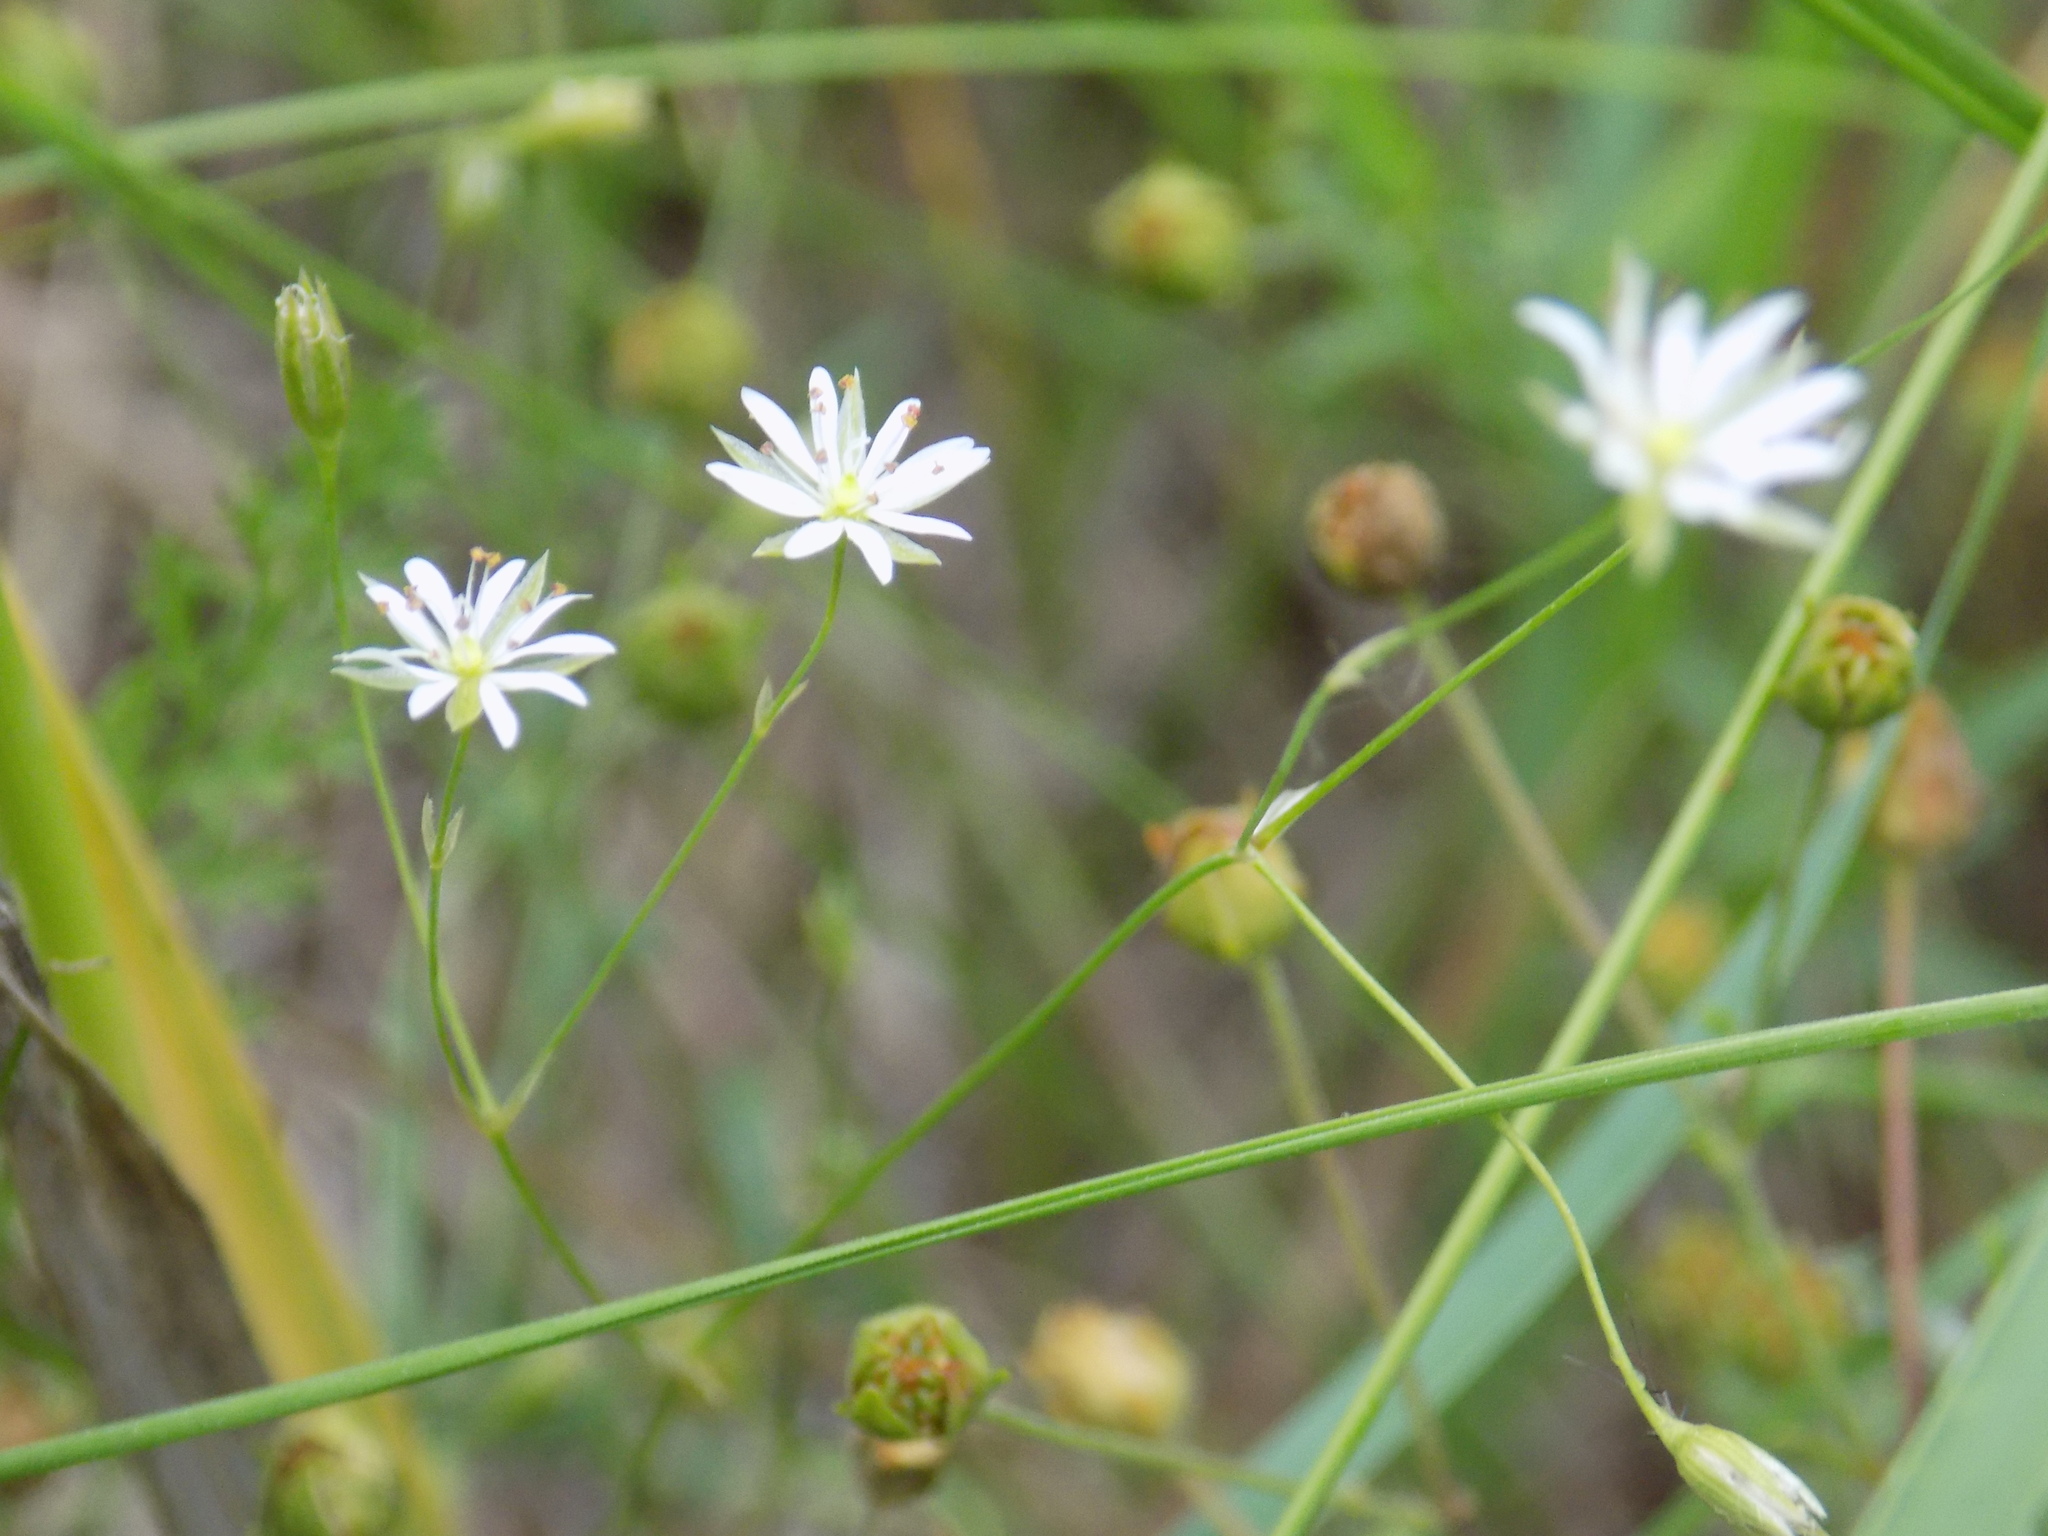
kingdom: Plantae
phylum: Tracheophyta
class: Magnoliopsida
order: Caryophyllales
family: Caryophyllaceae
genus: Stellaria
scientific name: Stellaria graminea
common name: Grass-like starwort
